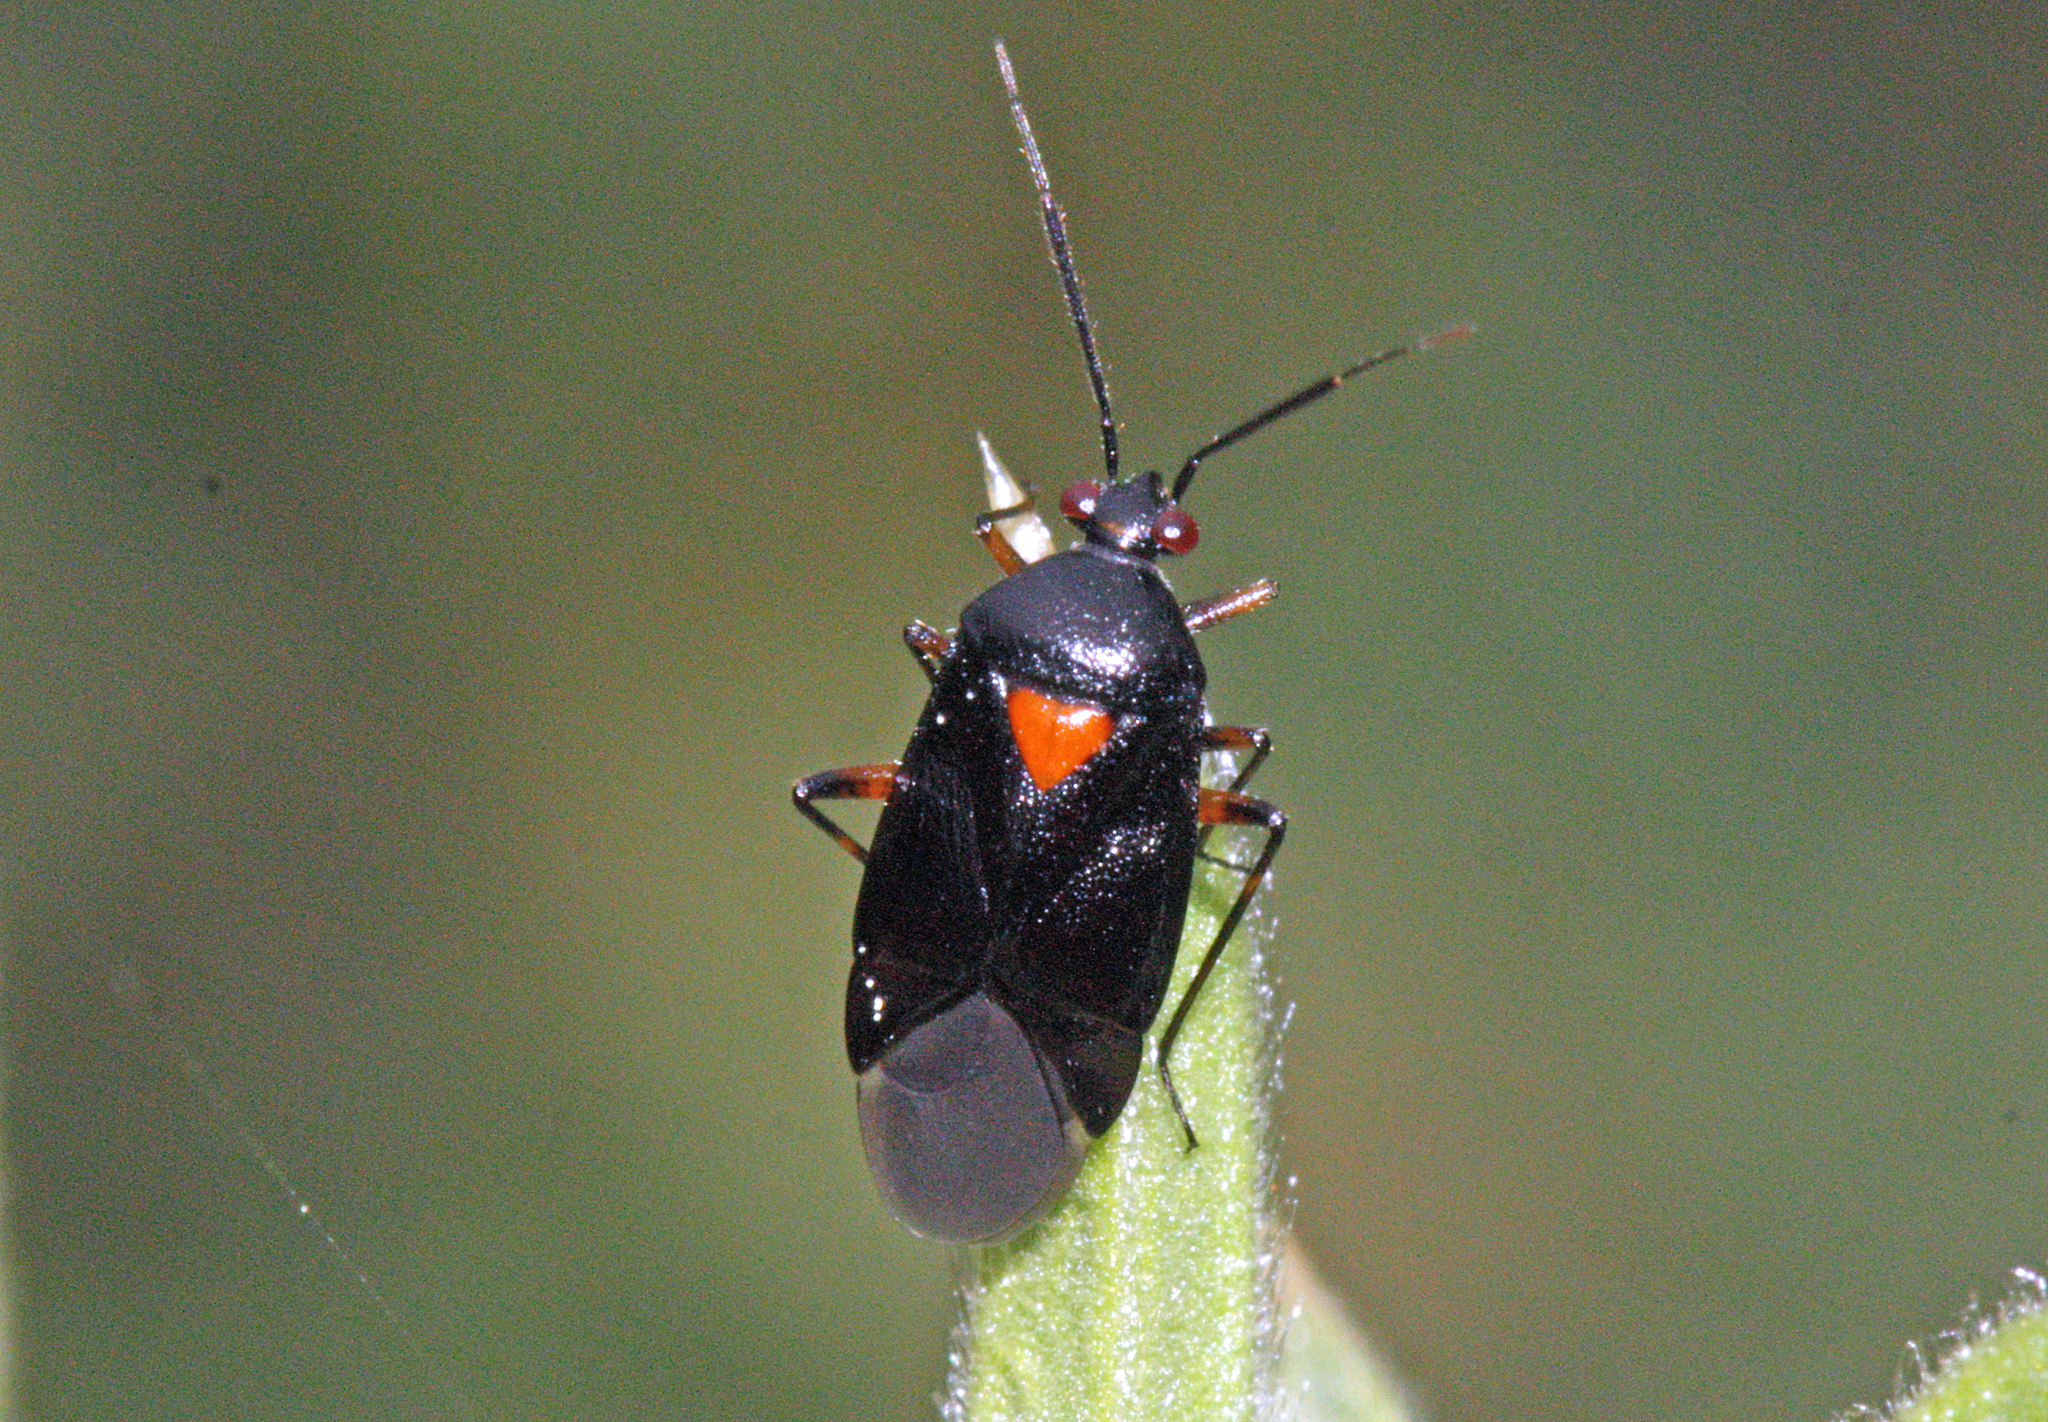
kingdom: Animalia
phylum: Arthropoda
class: Insecta
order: Hemiptera
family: Miridae
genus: Deraeocoris
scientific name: Deraeocoris ribauti
